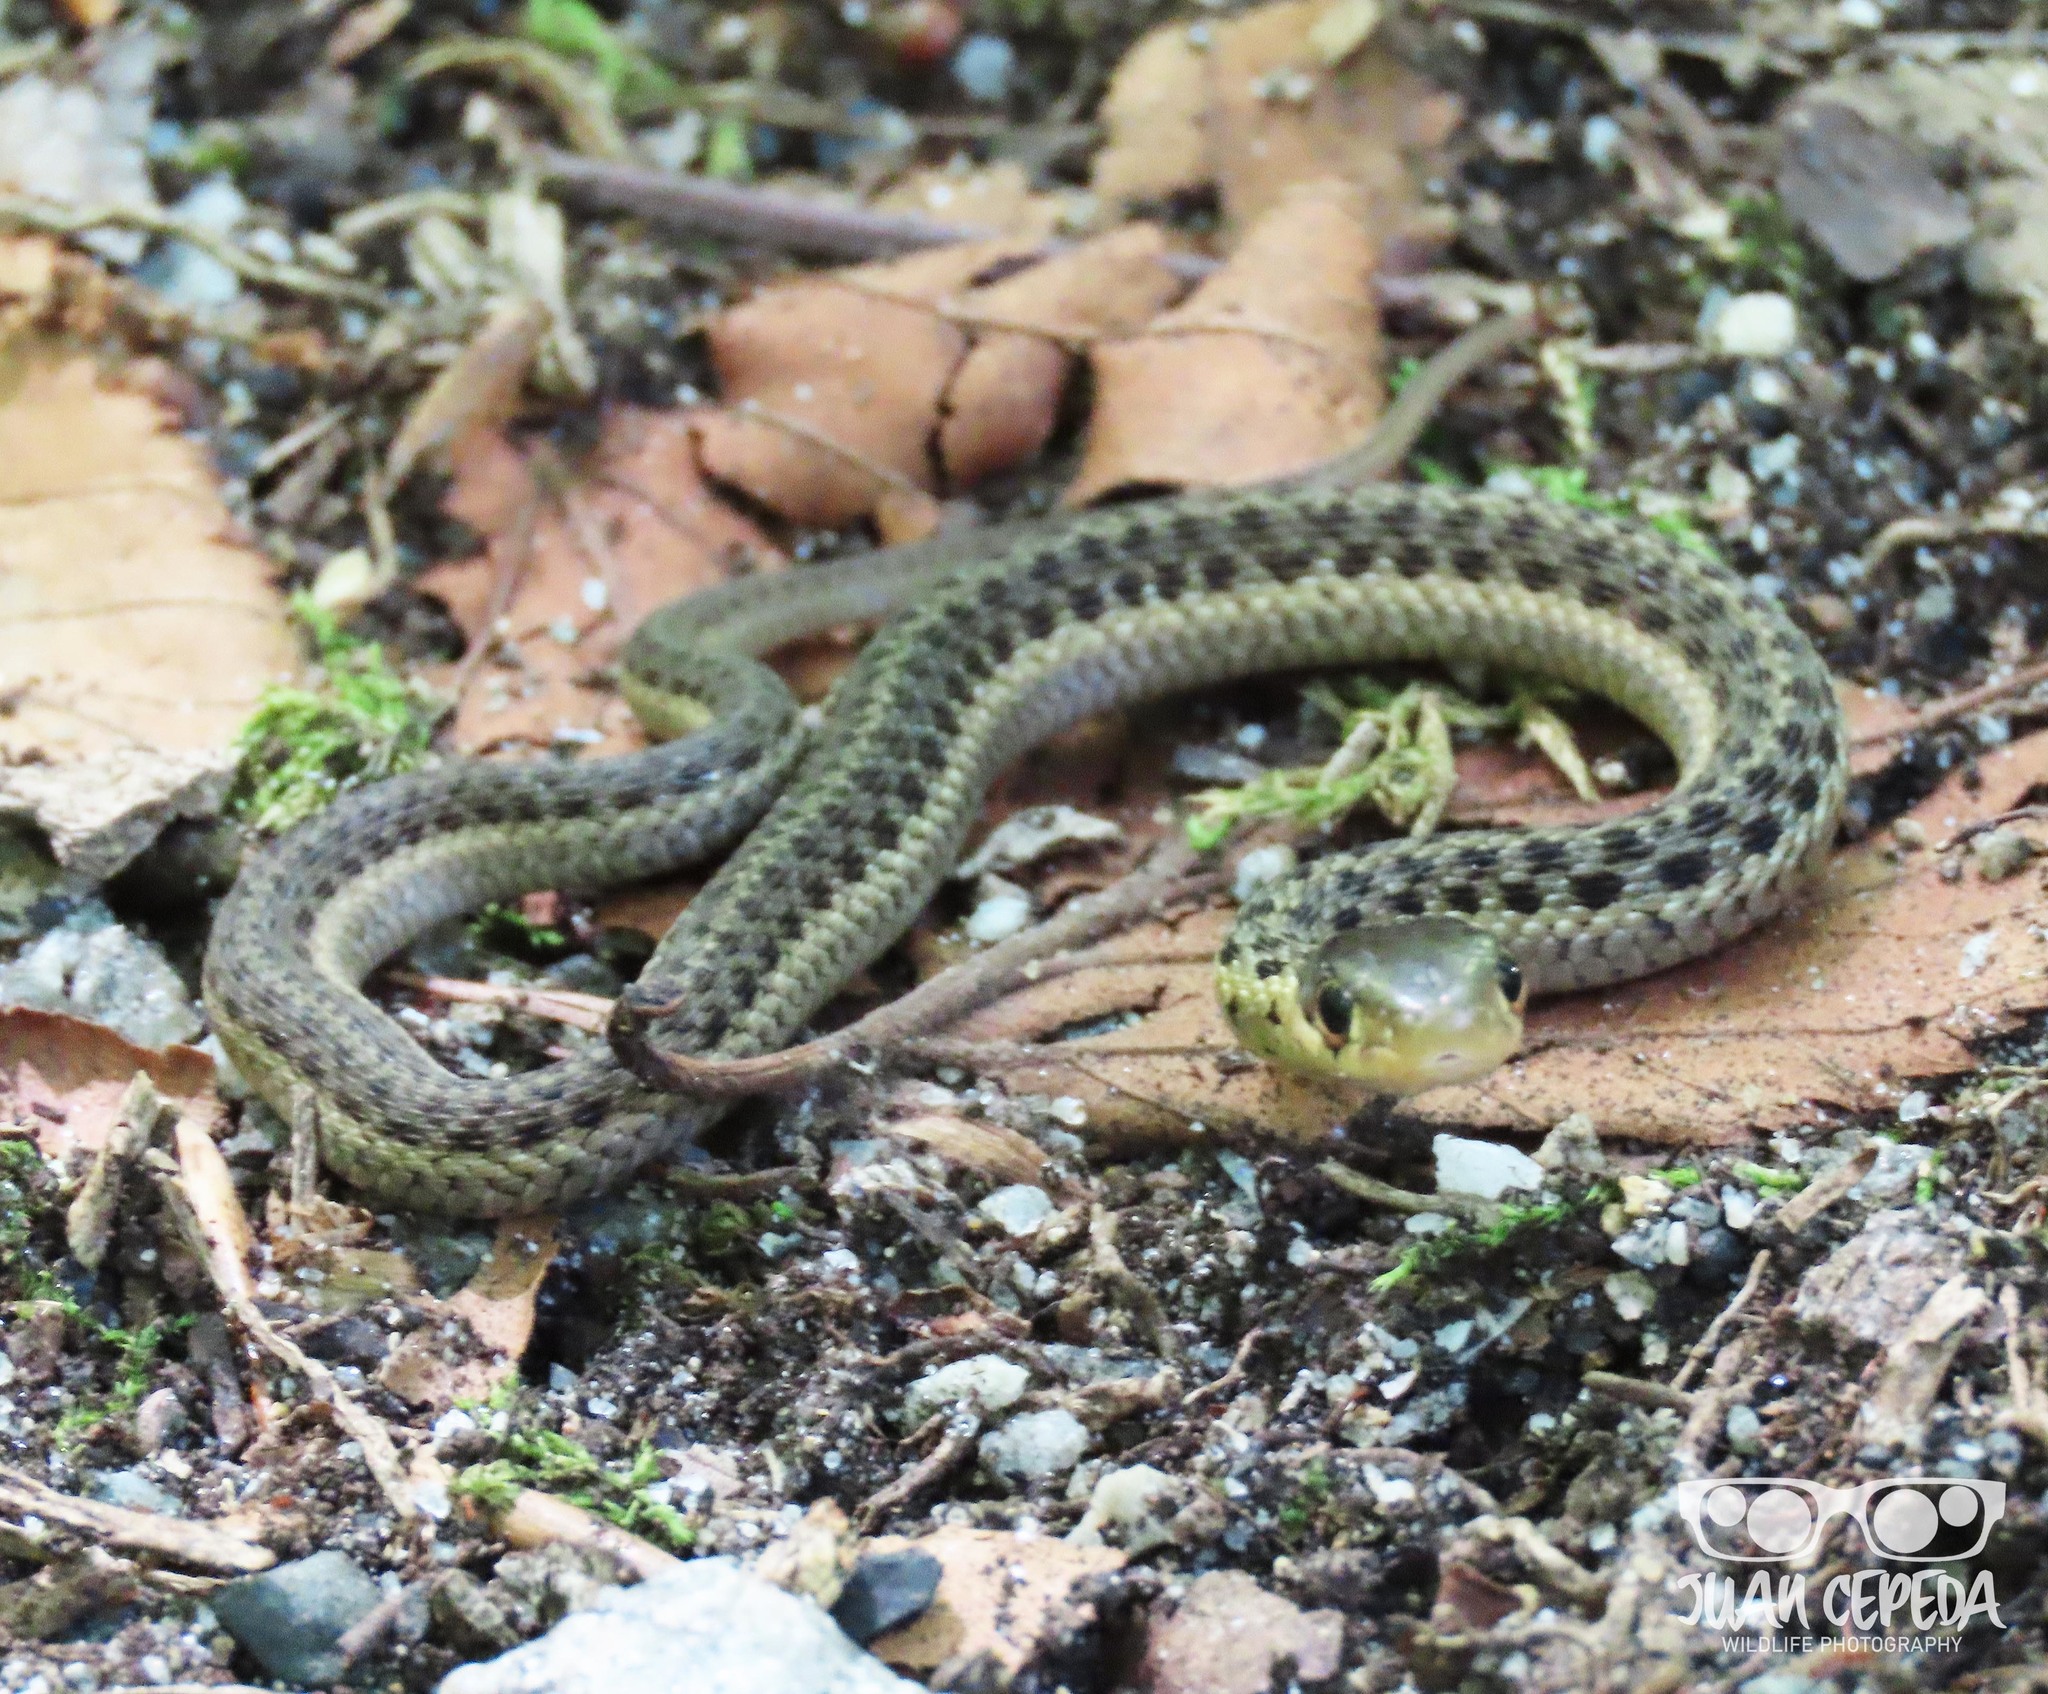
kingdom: Animalia
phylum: Chordata
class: Squamata
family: Colubridae
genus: Thamnophis
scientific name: Thamnophis sirtalis
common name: Common garter snake
